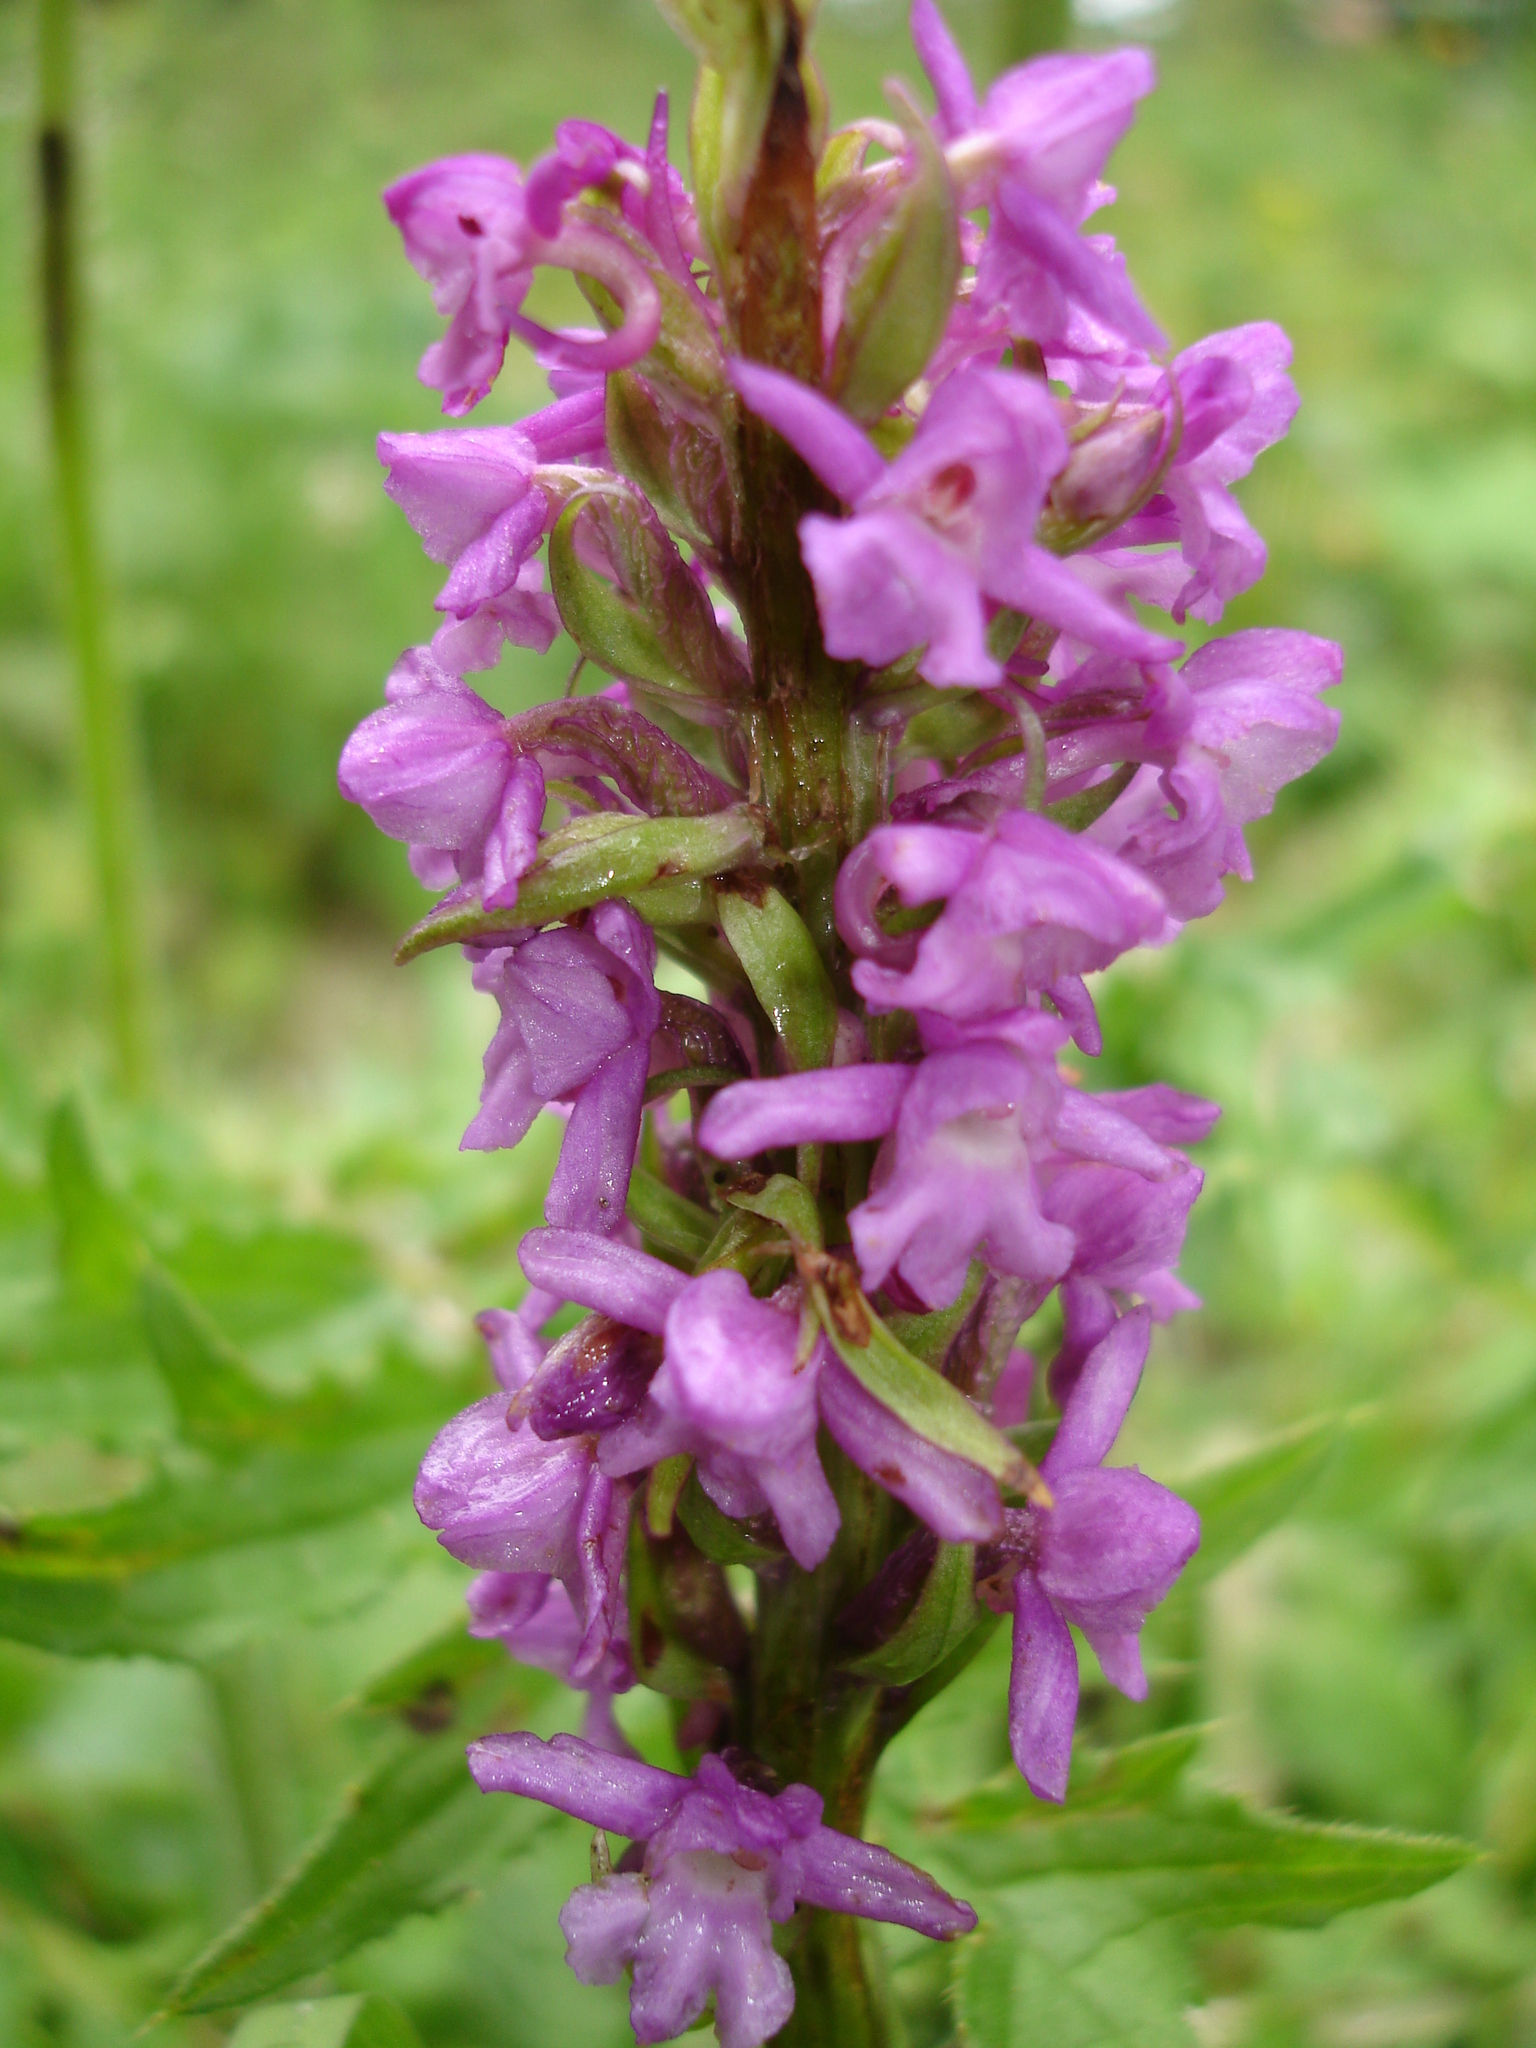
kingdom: Plantae
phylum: Tracheophyta
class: Liliopsida
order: Asparagales
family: Orchidaceae
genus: Gymnadenia
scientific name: Gymnadenia odoratissima
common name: Scented gymnadenia
